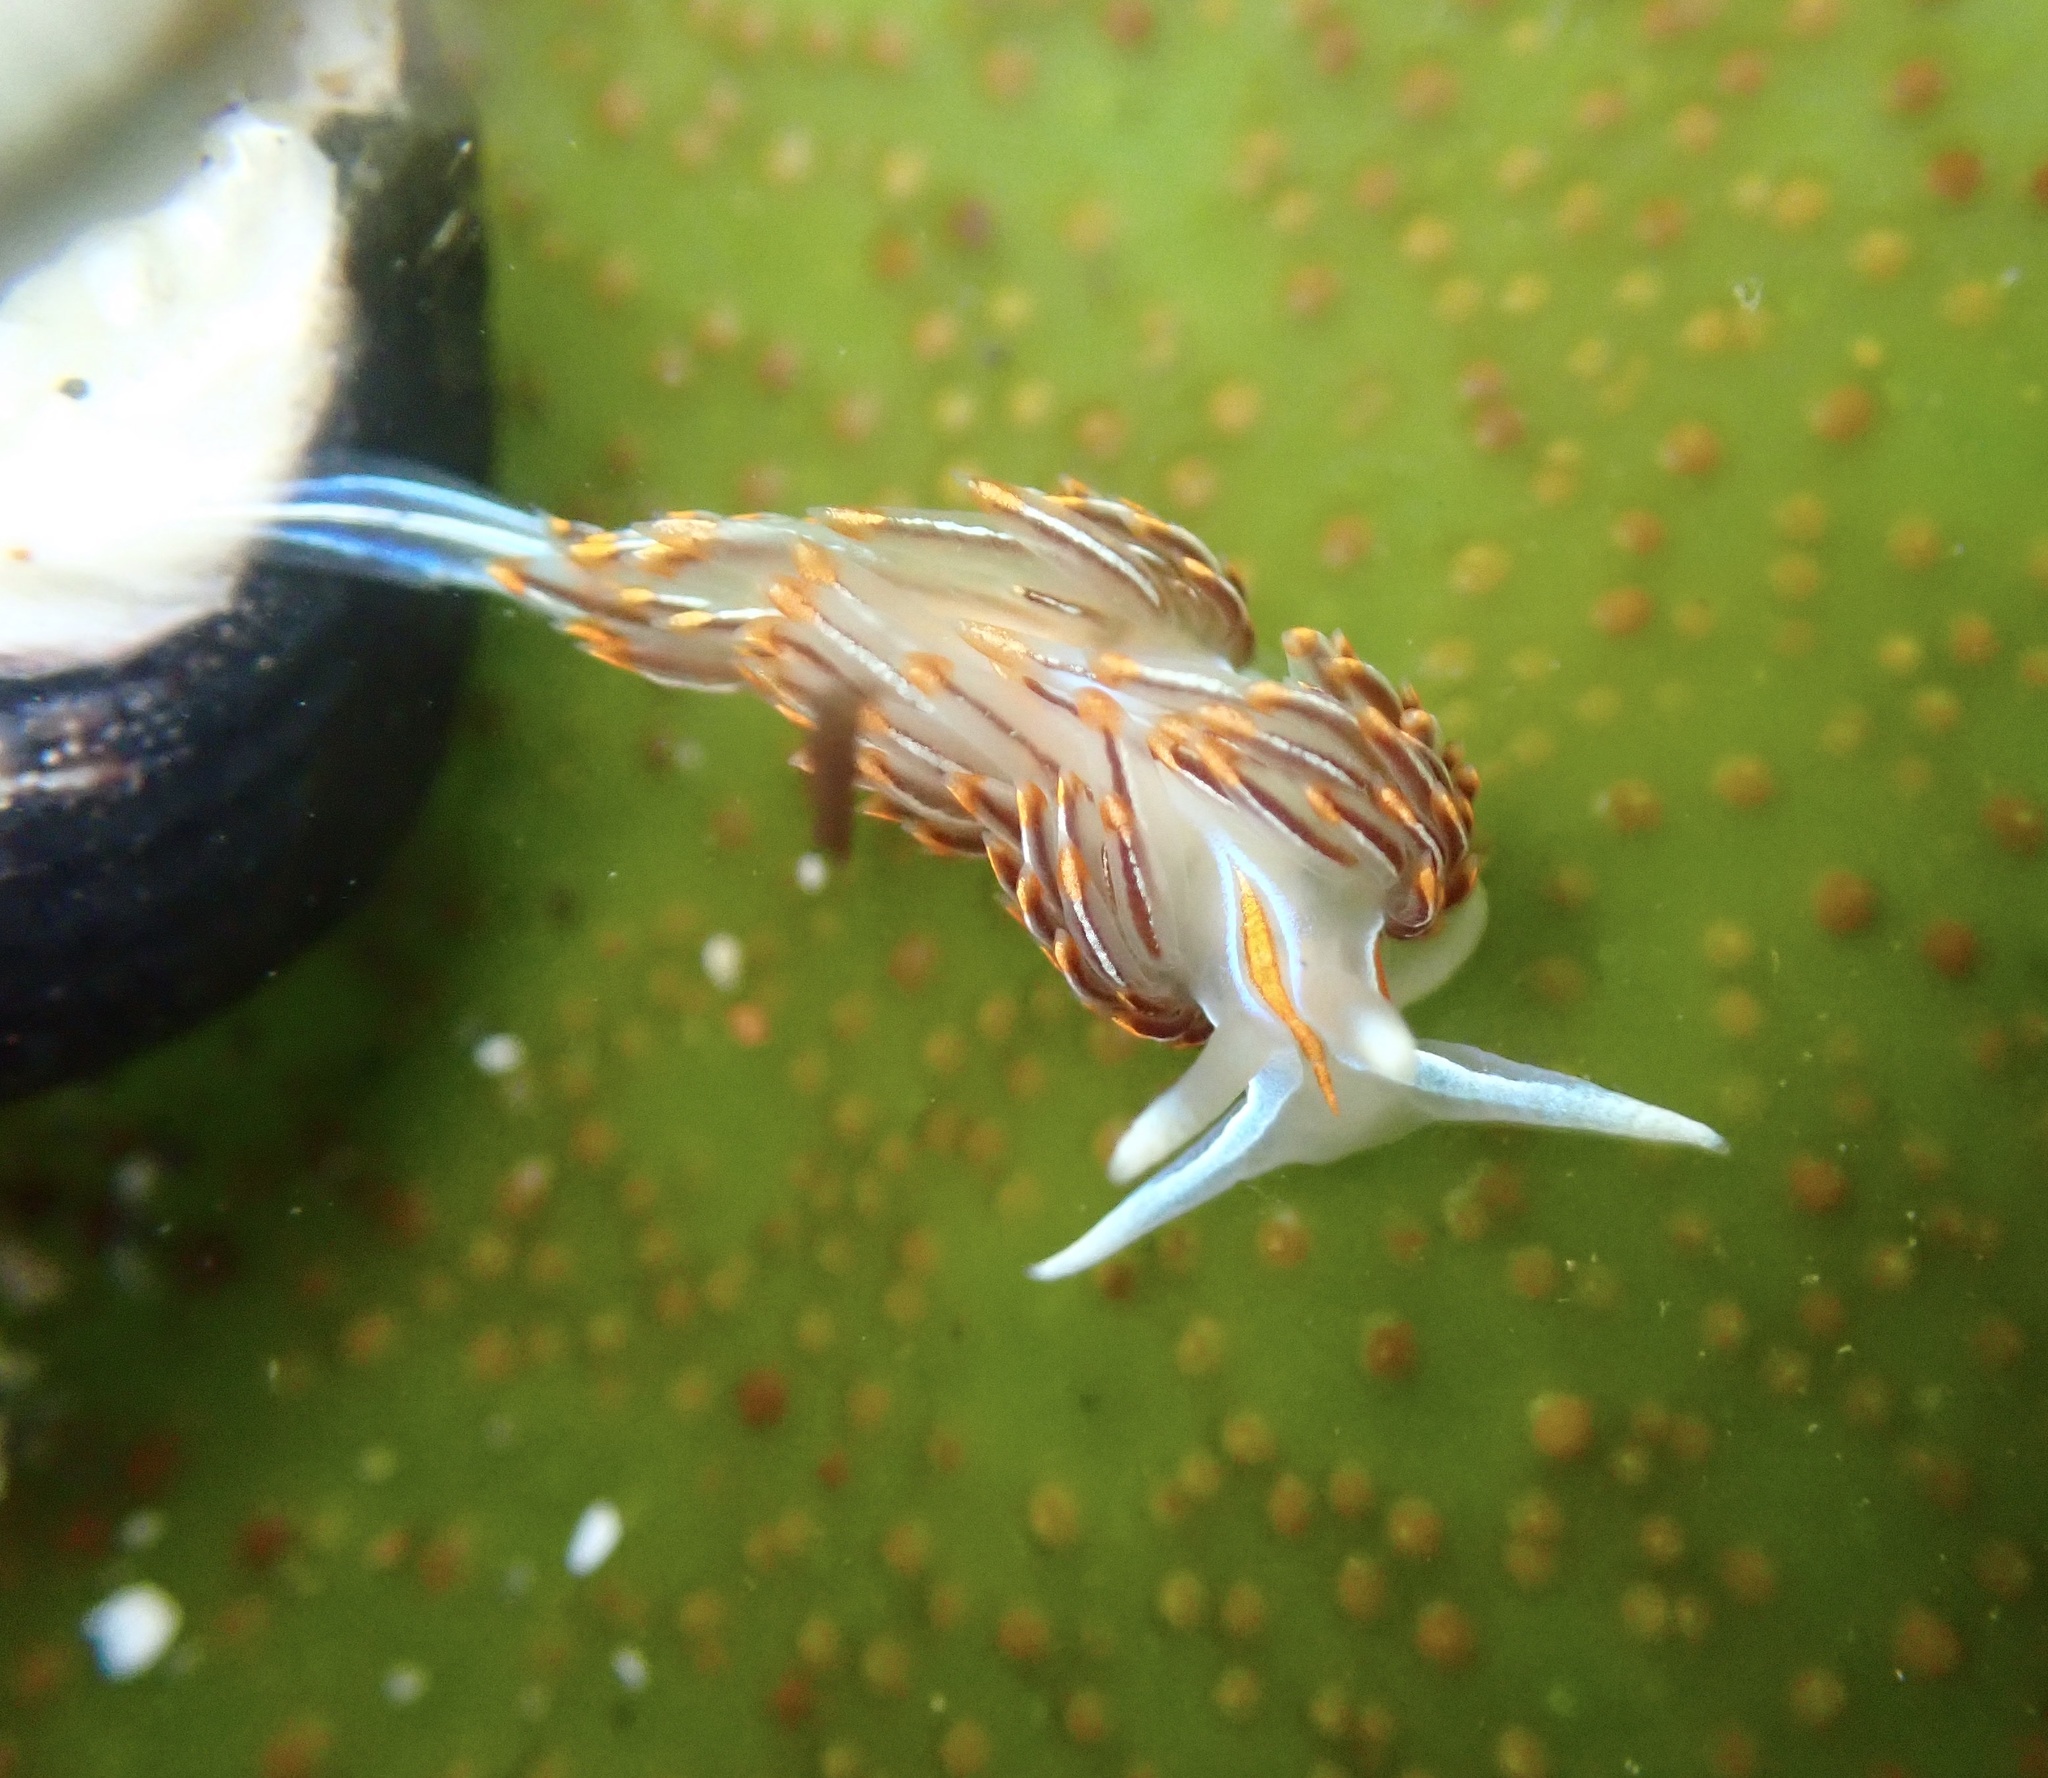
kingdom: Animalia
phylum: Mollusca
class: Gastropoda
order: Nudibranchia
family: Myrrhinidae
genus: Hermissenda
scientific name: Hermissenda crassicornis
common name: Hermissenda
